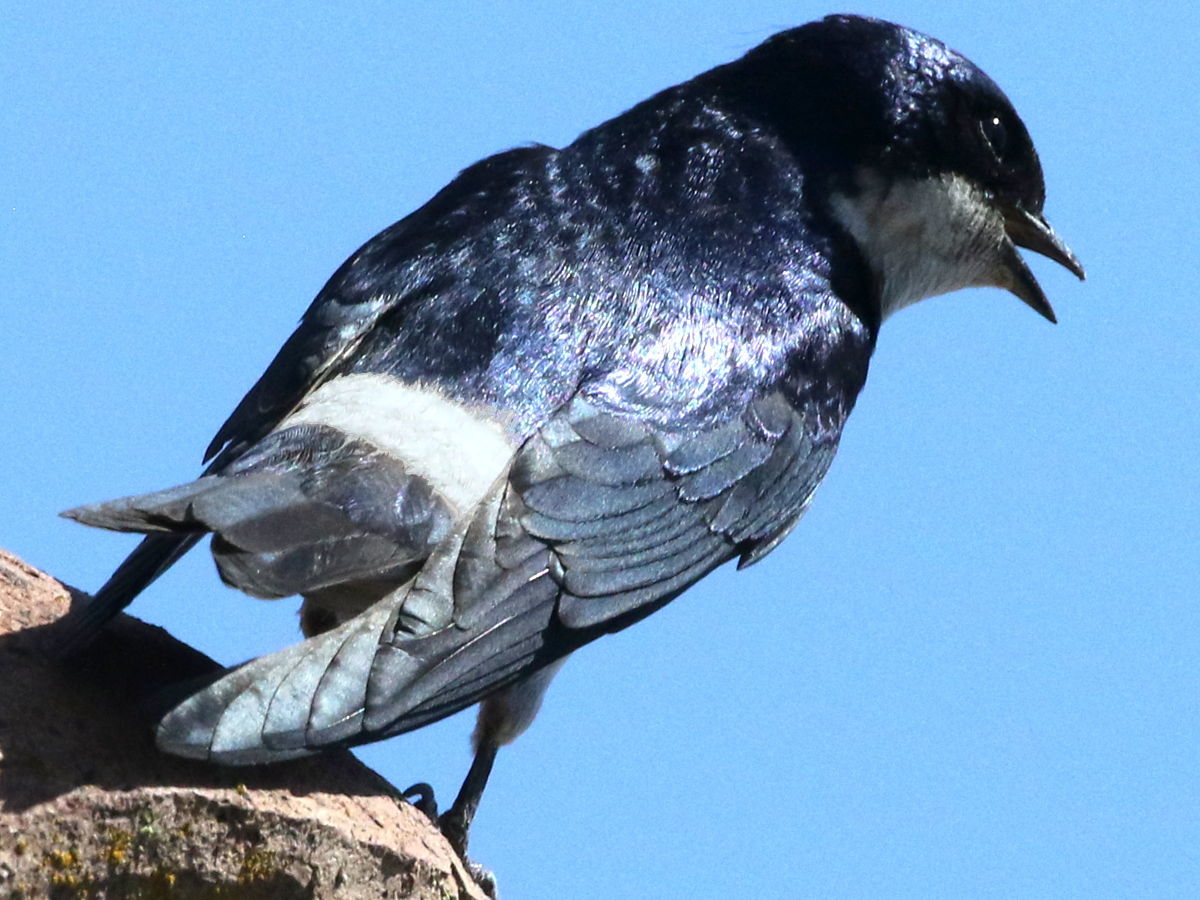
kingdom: Animalia
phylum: Chordata
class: Aves
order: Passeriformes
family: Hirundinidae
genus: Tachycineta
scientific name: Tachycineta leucopyga
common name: Chilean swallow
